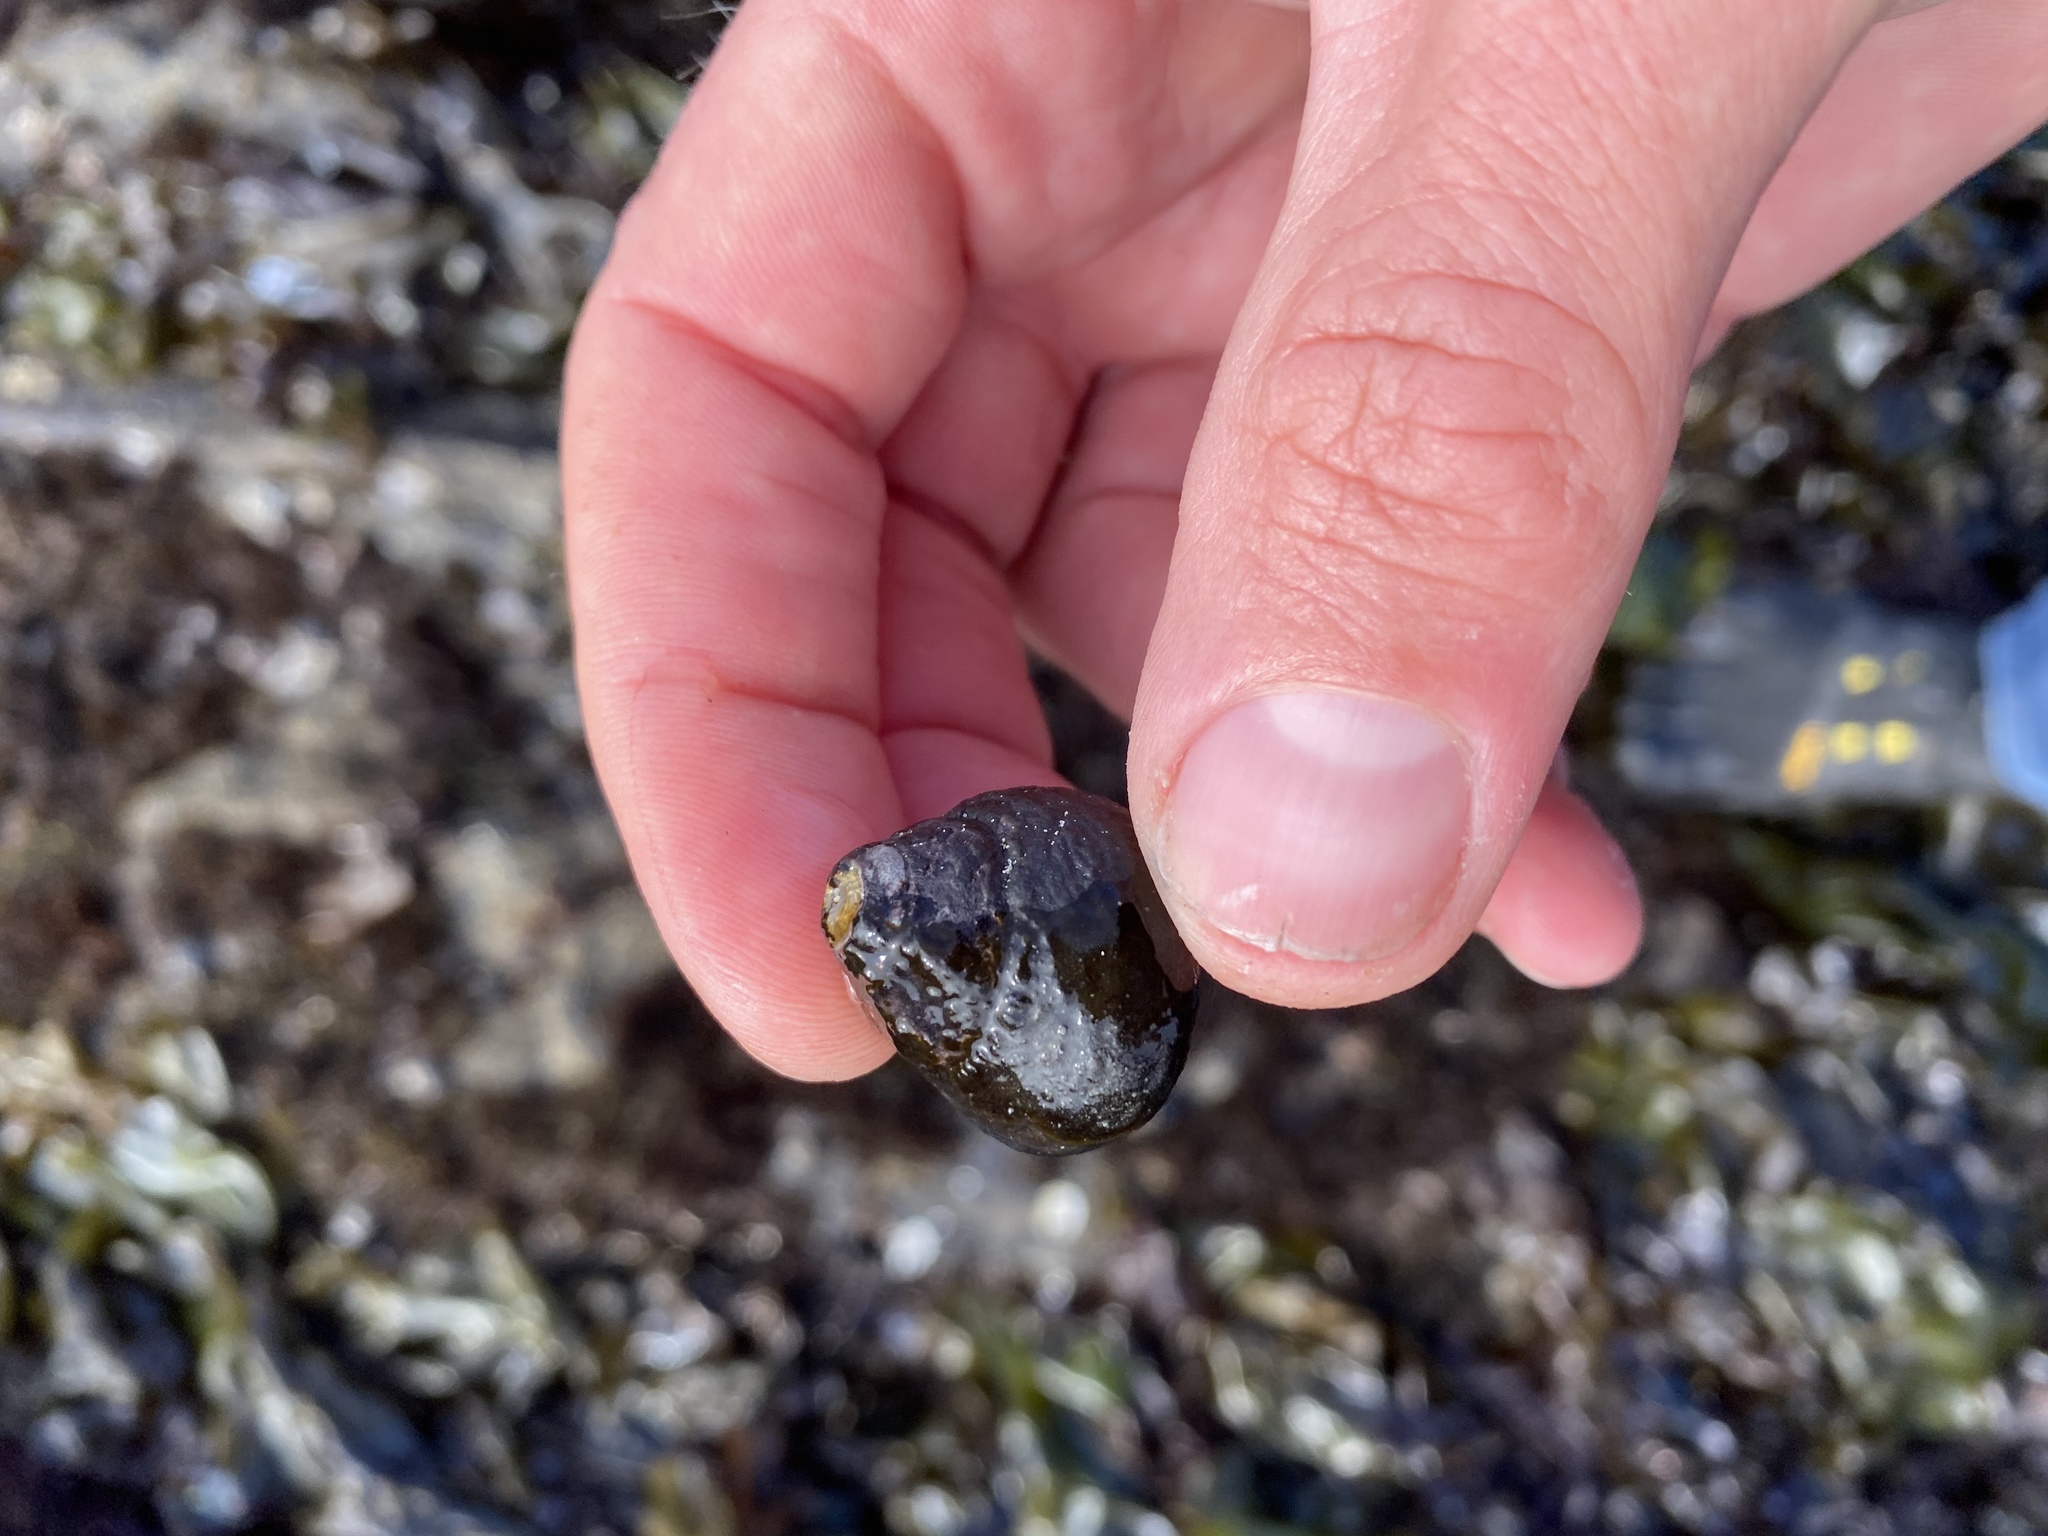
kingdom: Animalia
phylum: Mollusca
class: Gastropoda
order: Trochida
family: Tegulidae
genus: Tegula
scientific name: Tegula funebralis
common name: Black tegula
